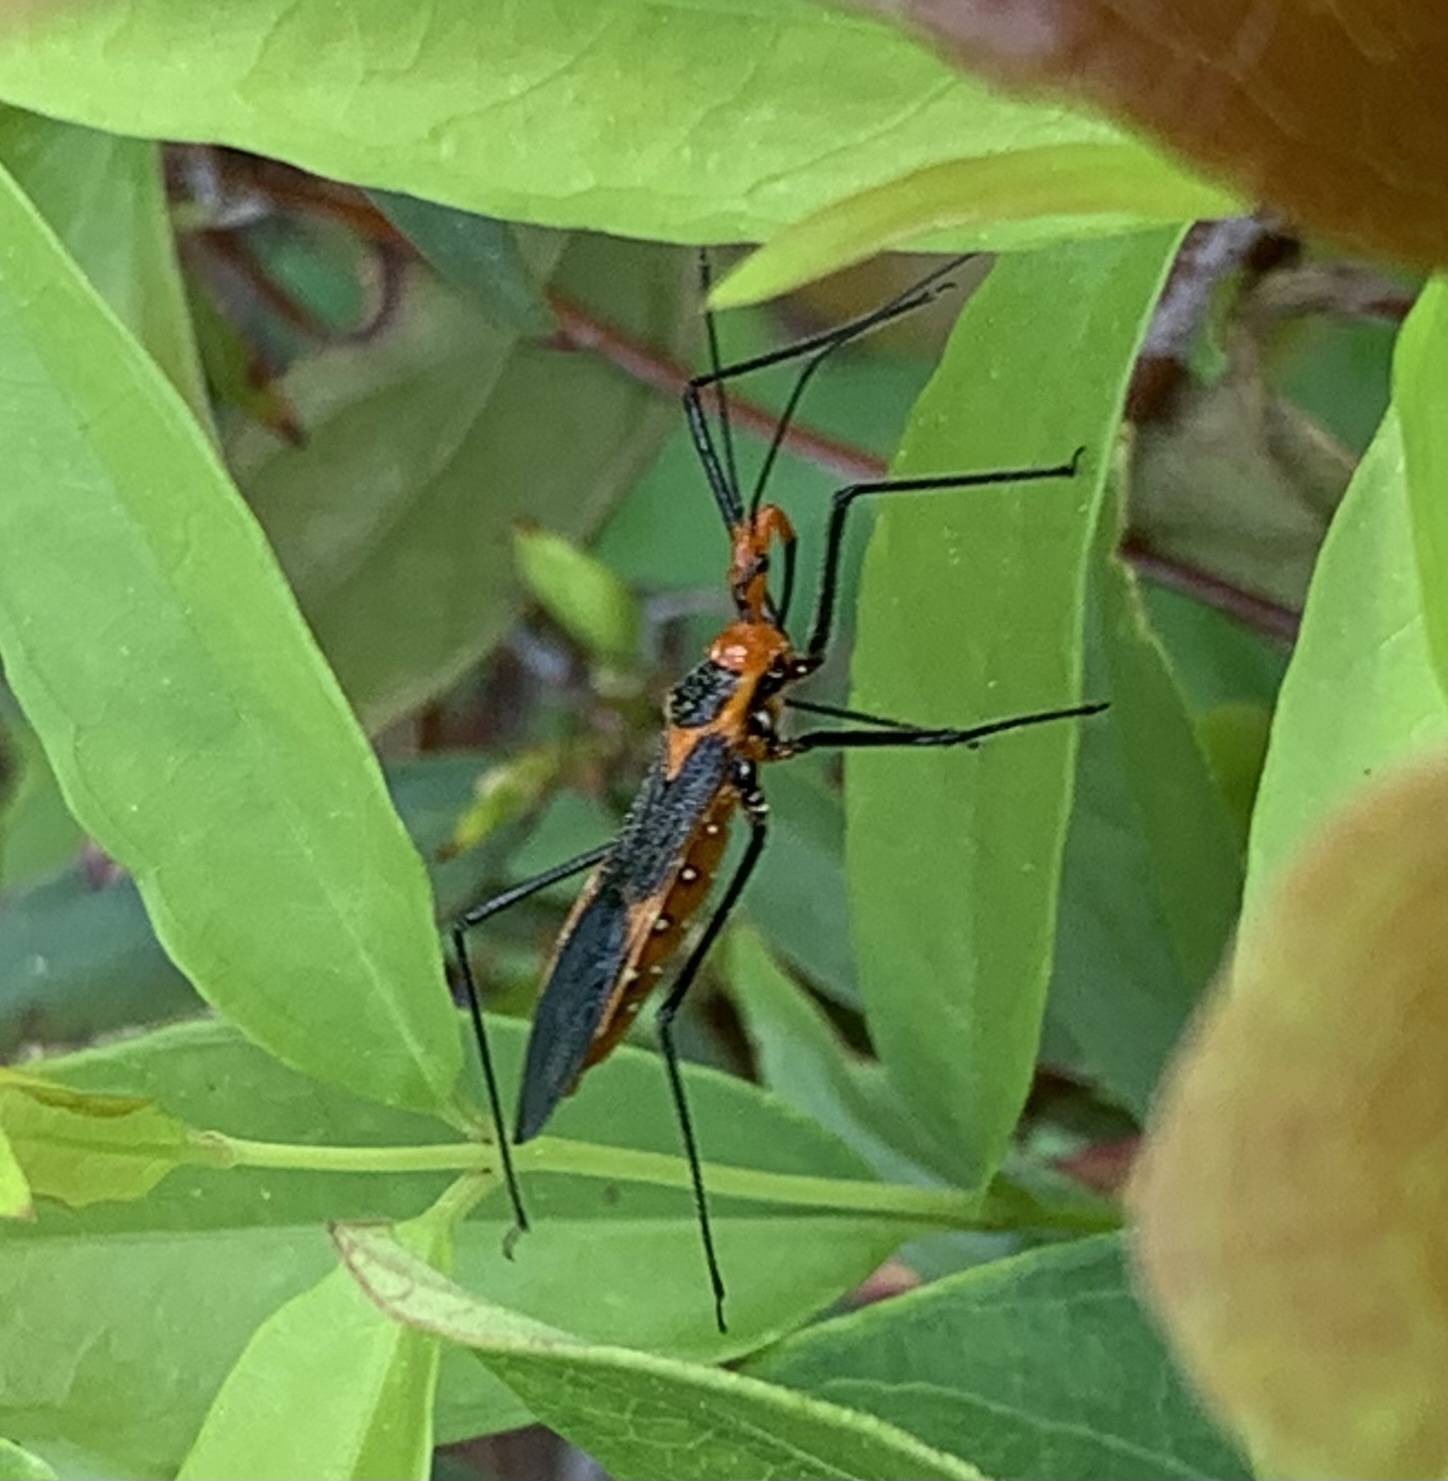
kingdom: Animalia
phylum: Arthropoda
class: Insecta
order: Hemiptera
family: Reduviidae
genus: Zelus
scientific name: Zelus longipes
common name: Milkweed assassin bug
